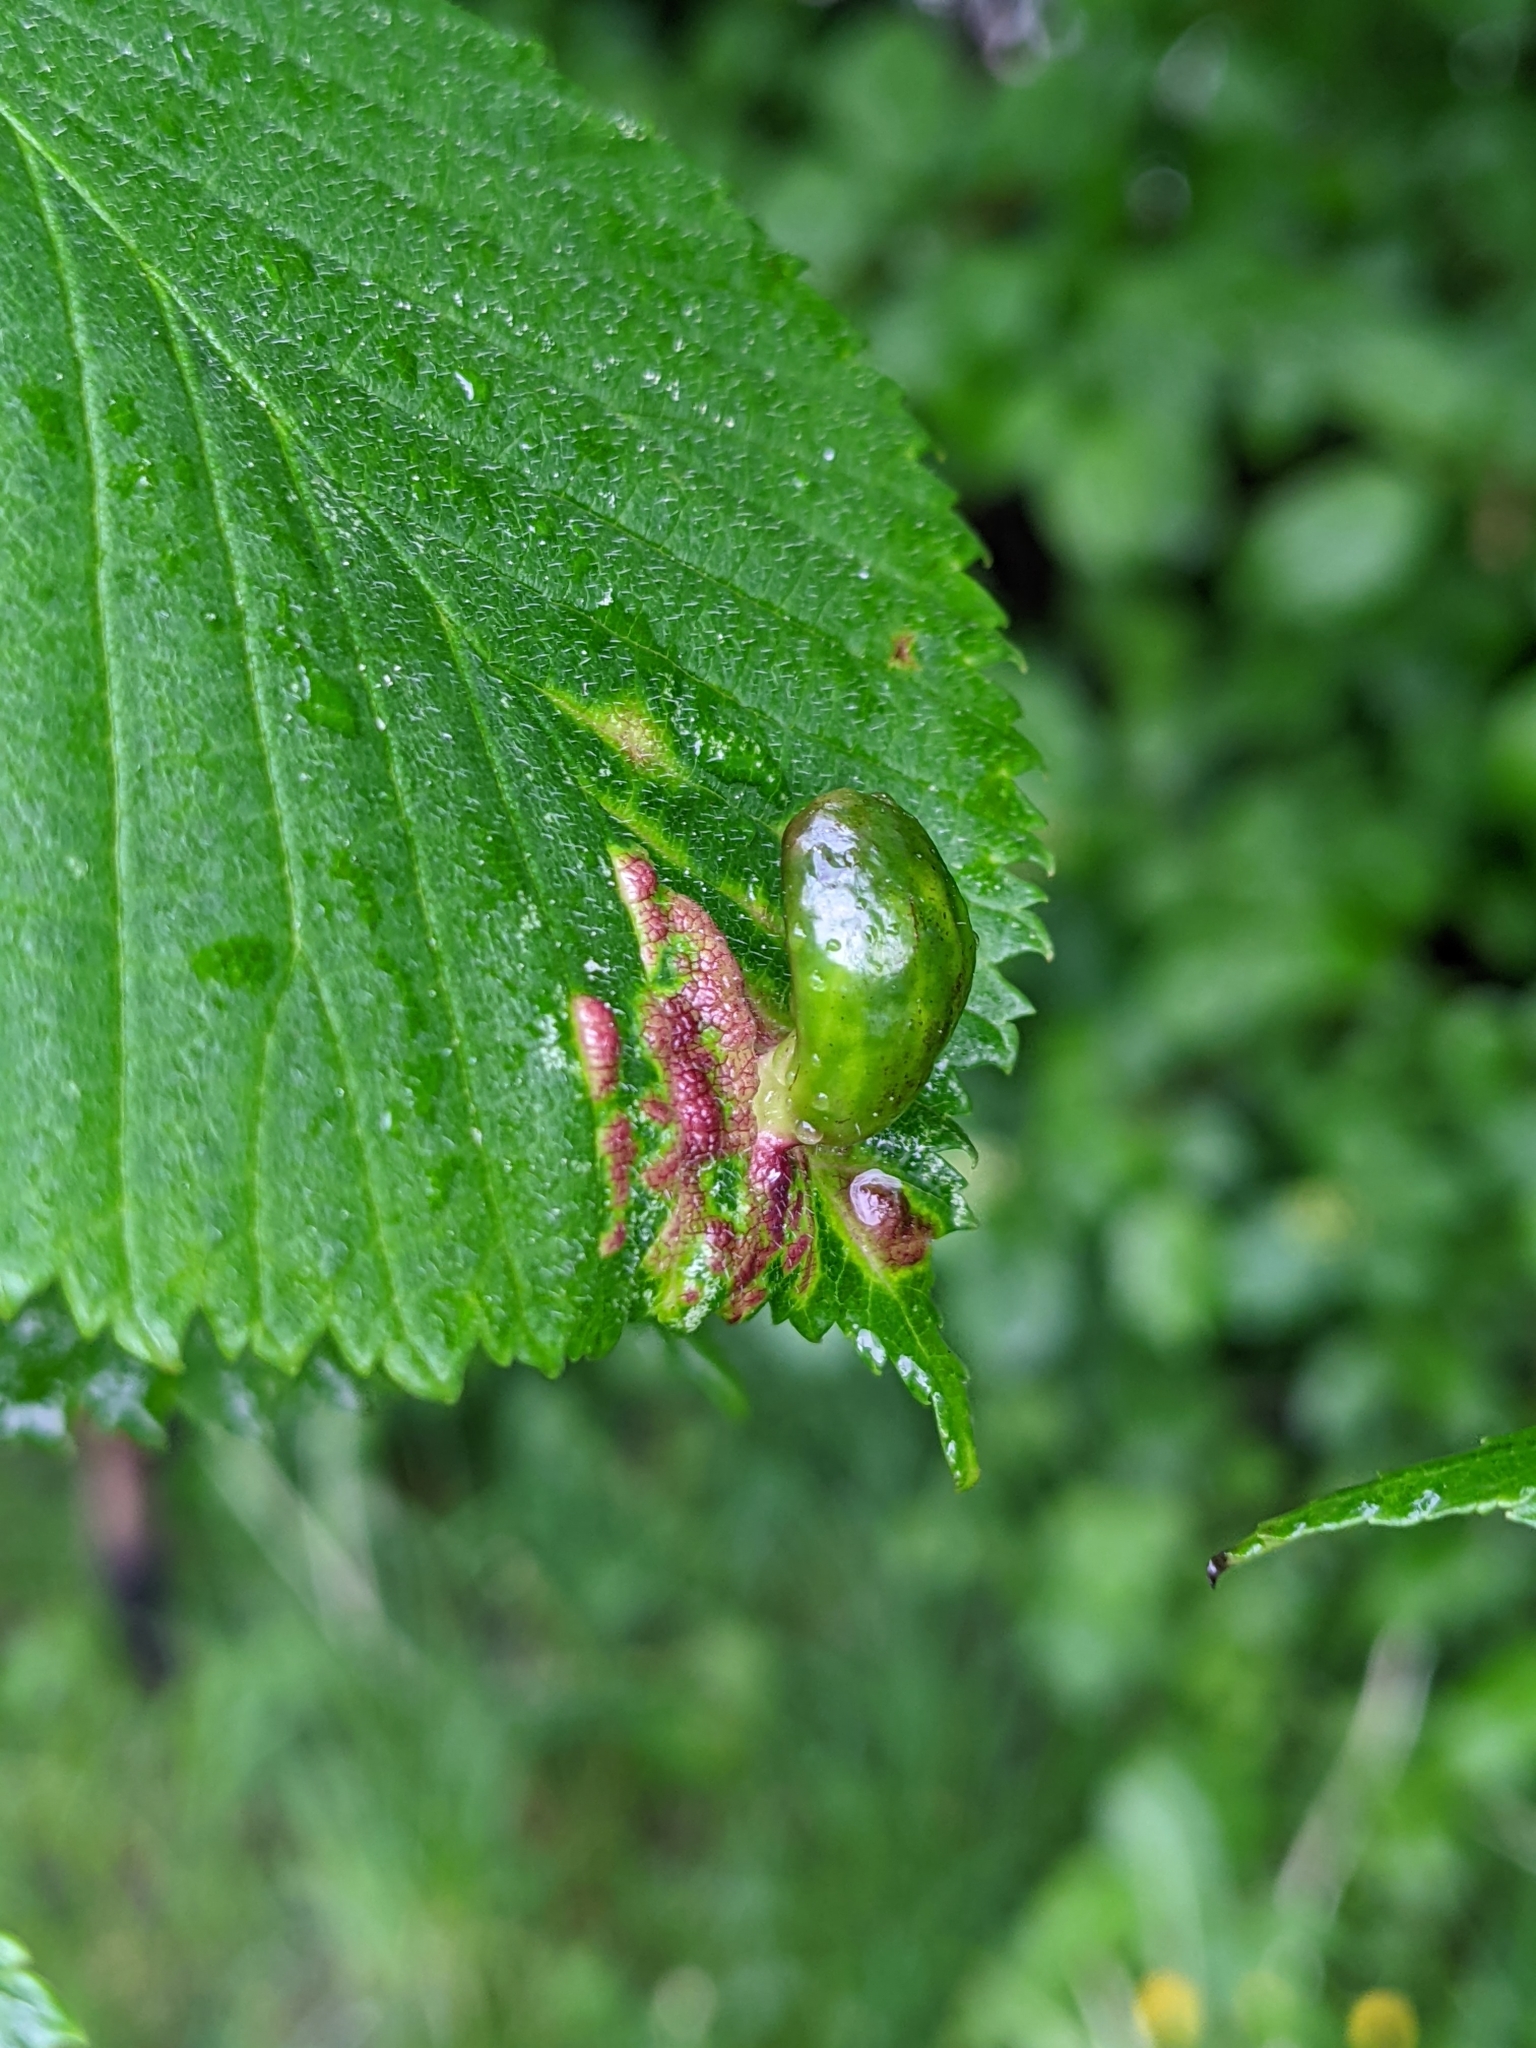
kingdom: Animalia
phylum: Arthropoda
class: Insecta
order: Hemiptera
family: Aphididae
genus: Tetraneura
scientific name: Tetraneura ulmi
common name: Aphid
